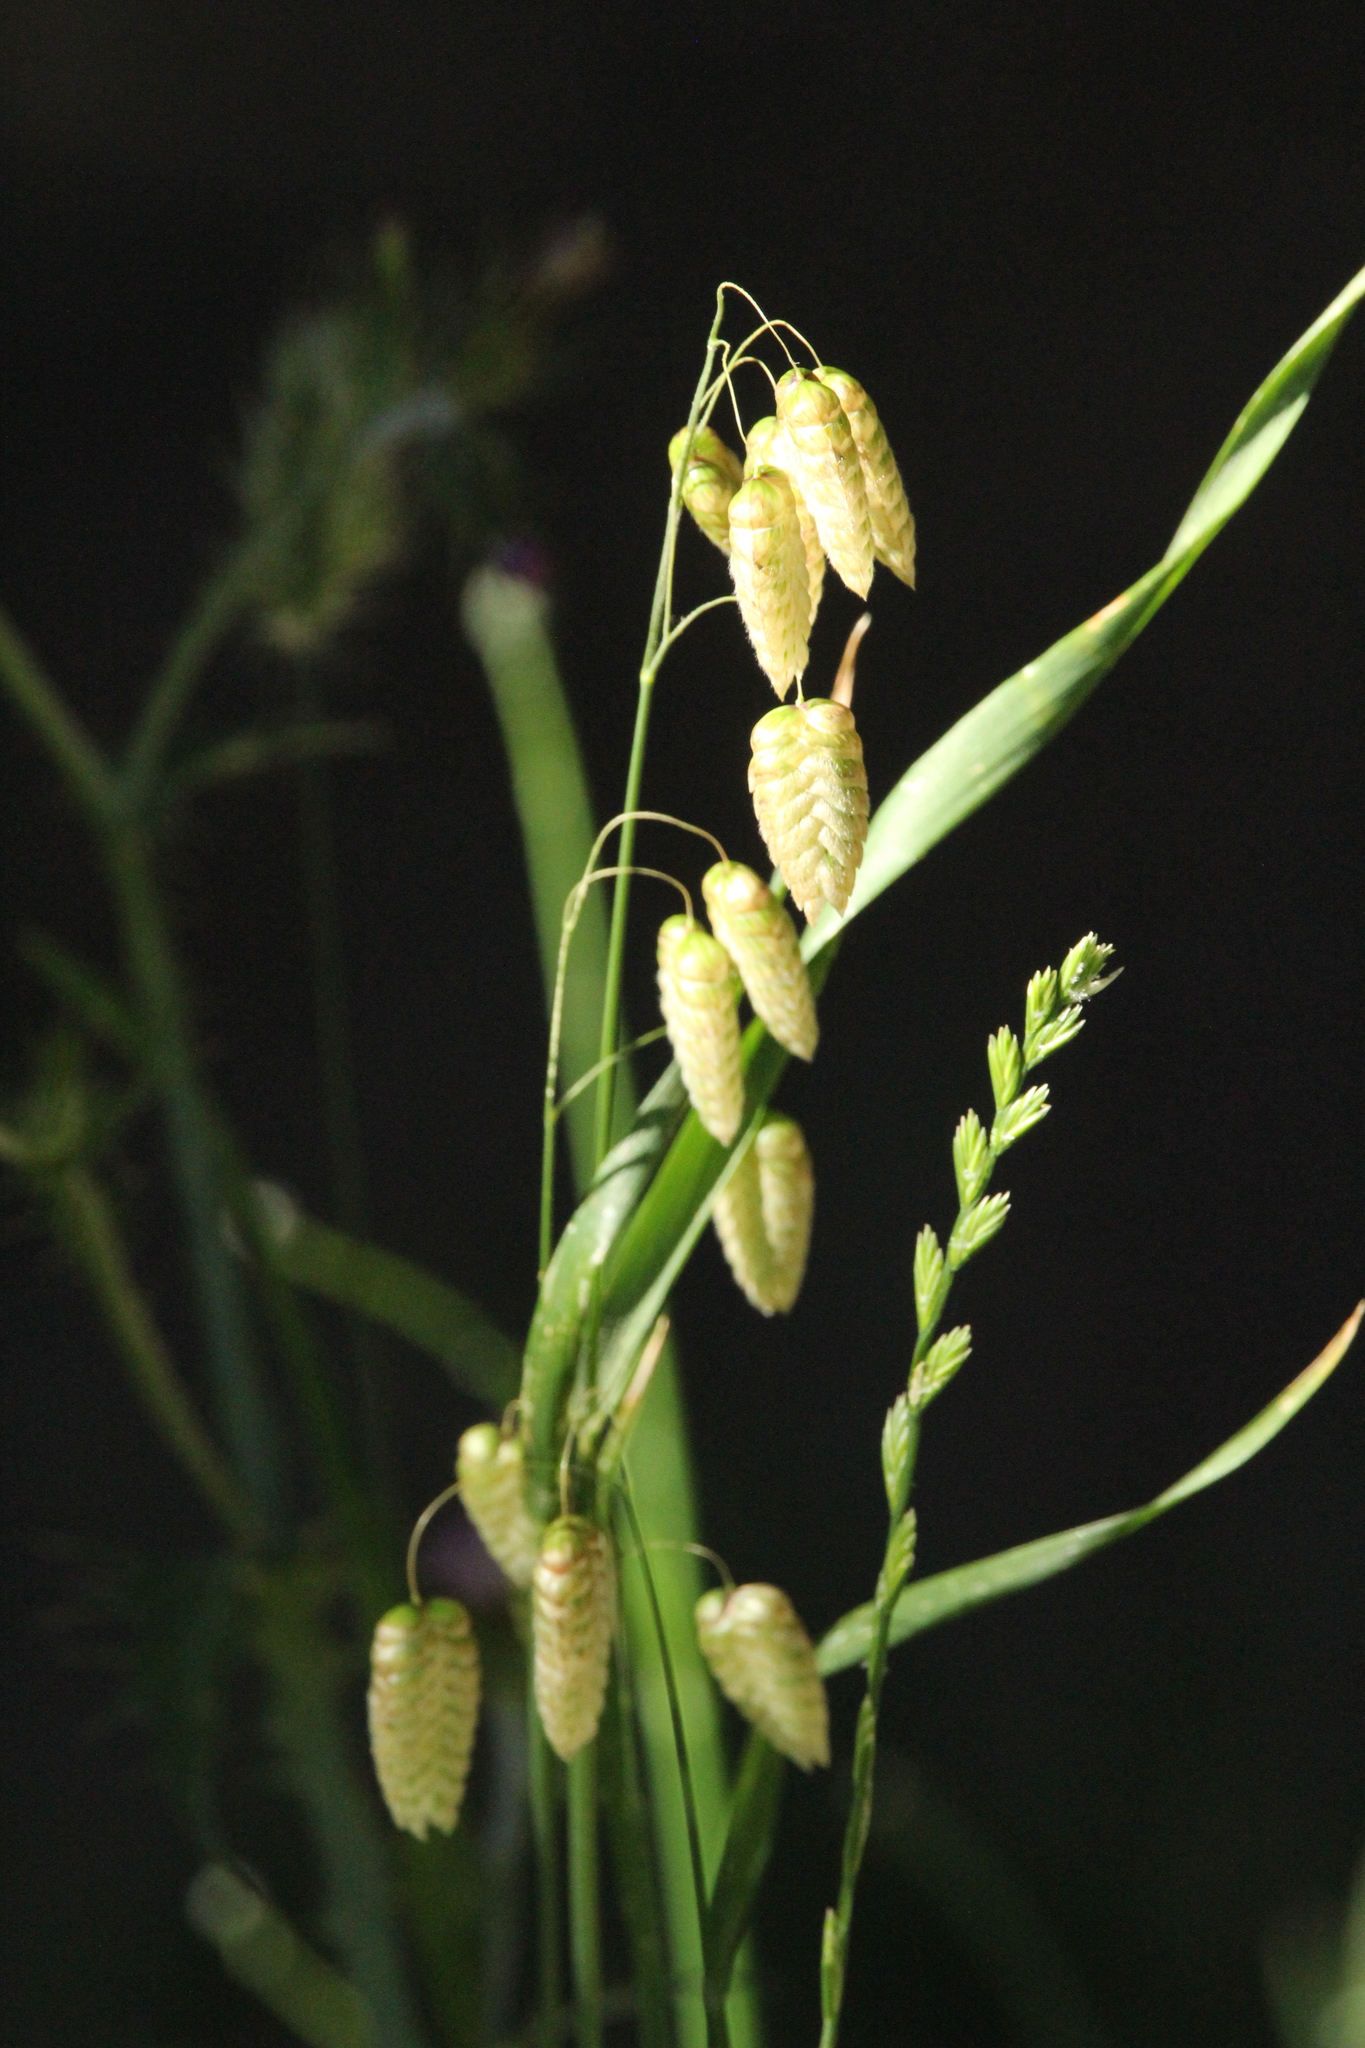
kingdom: Plantae
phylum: Tracheophyta
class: Liliopsida
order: Poales
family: Poaceae
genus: Briza
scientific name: Briza maxima
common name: Big quakinggrass
